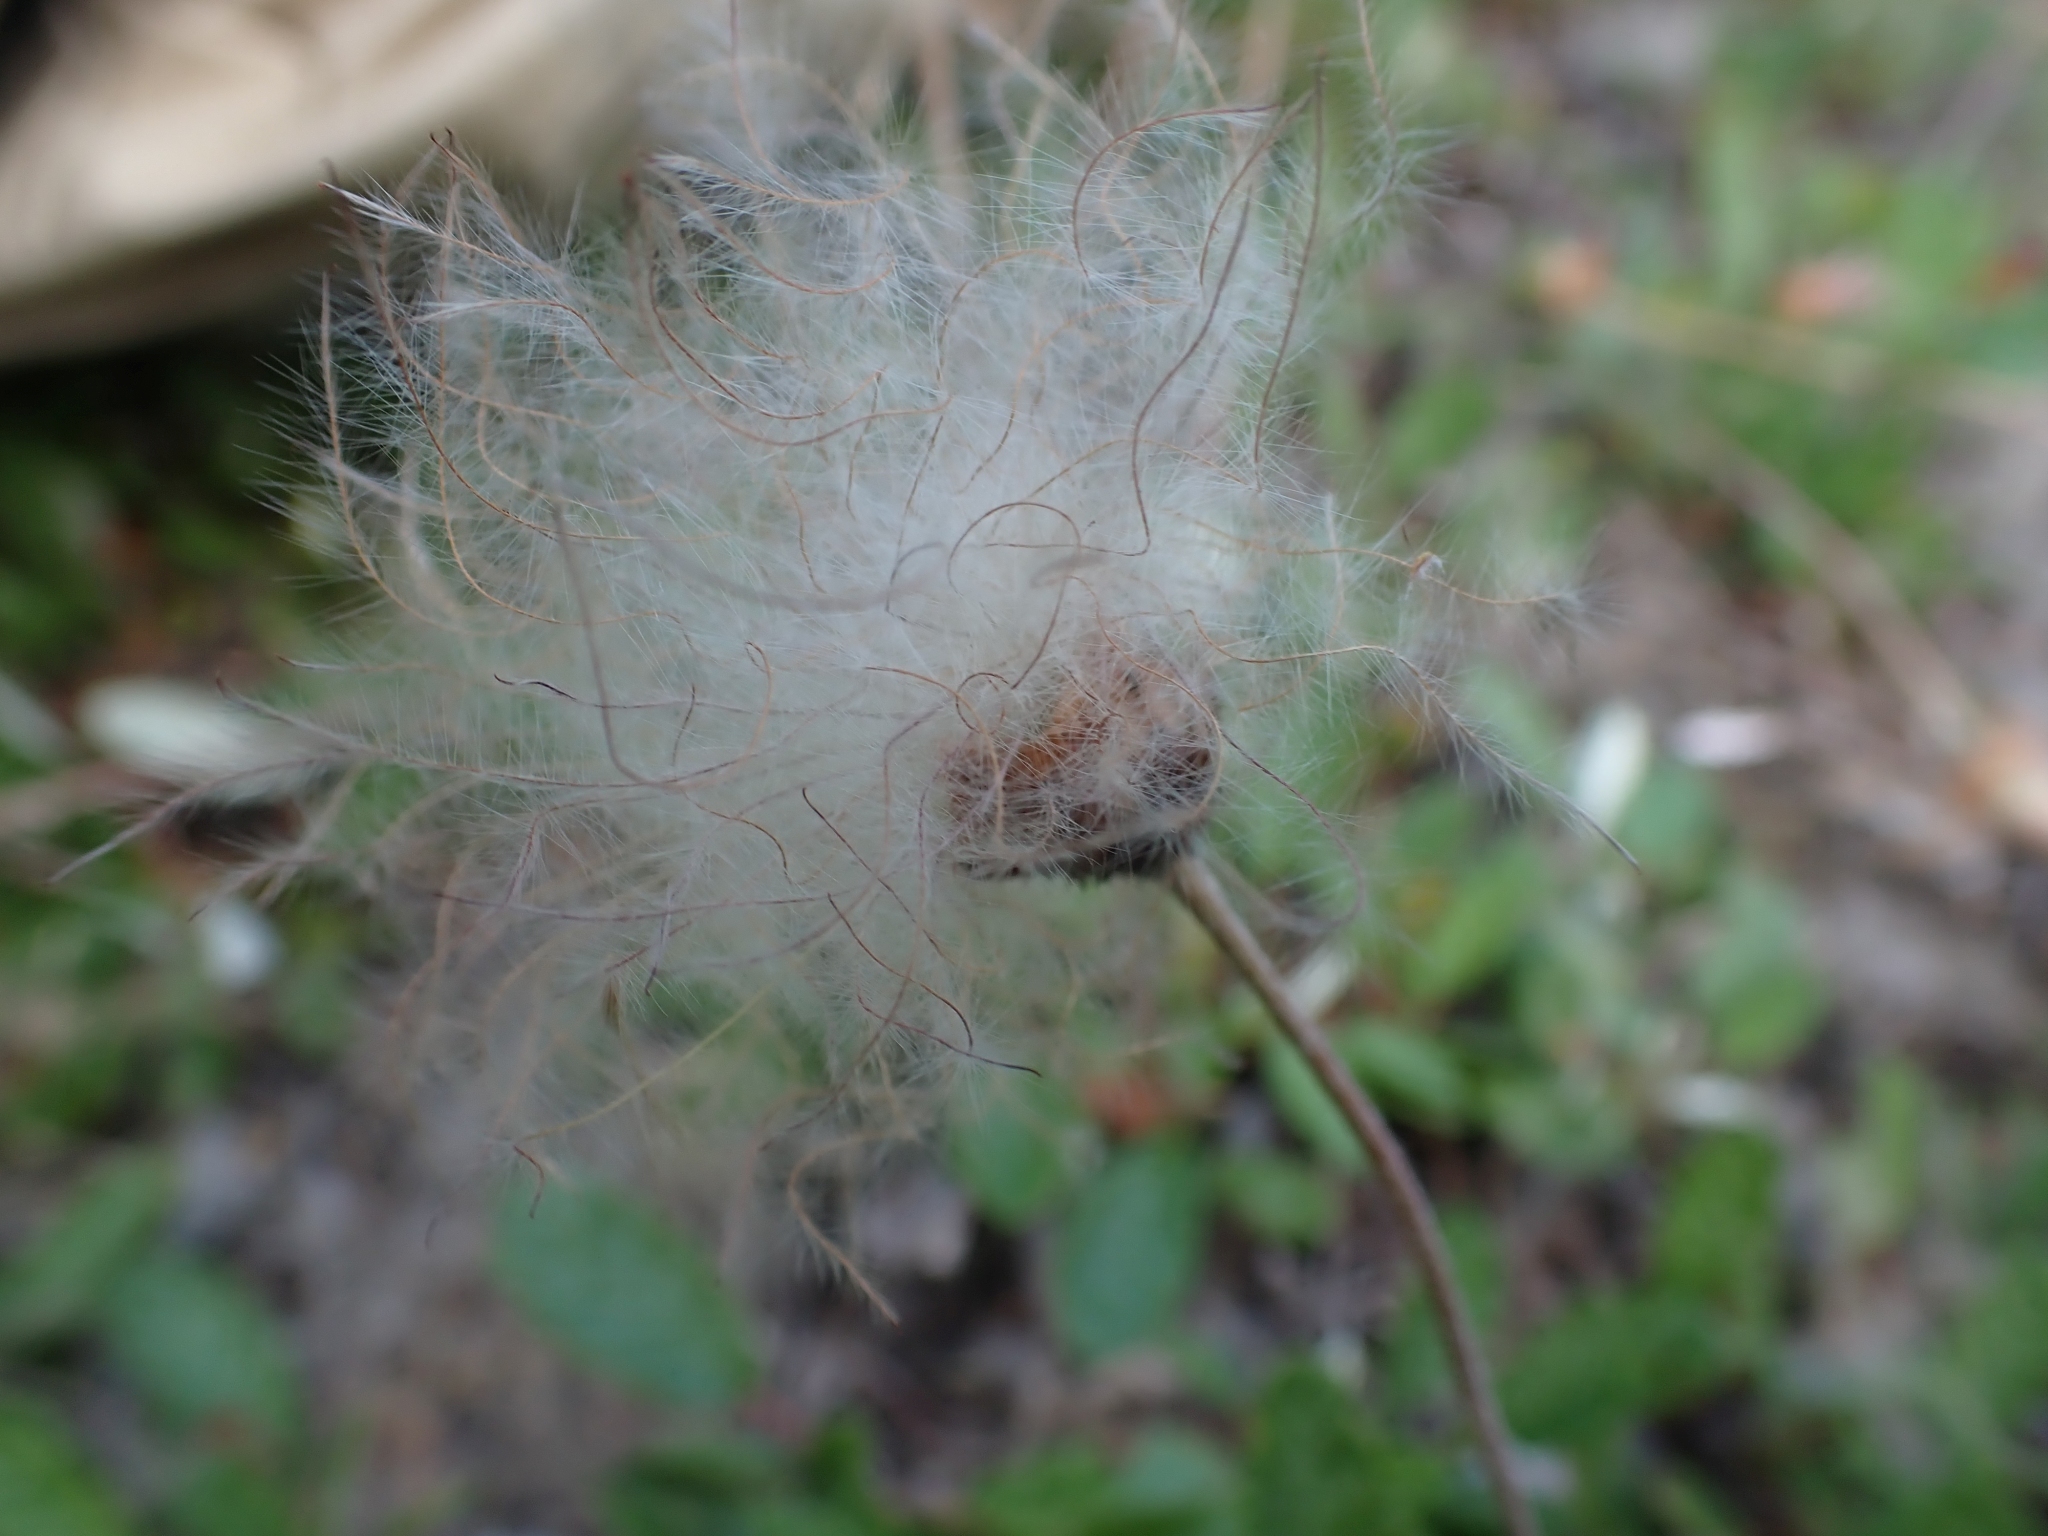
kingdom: Plantae
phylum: Tracheophyta
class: Magnoliopsida
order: Rosales
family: Rosaceae
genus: Dryas
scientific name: Dryas drummondii
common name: Drummond's dryad
